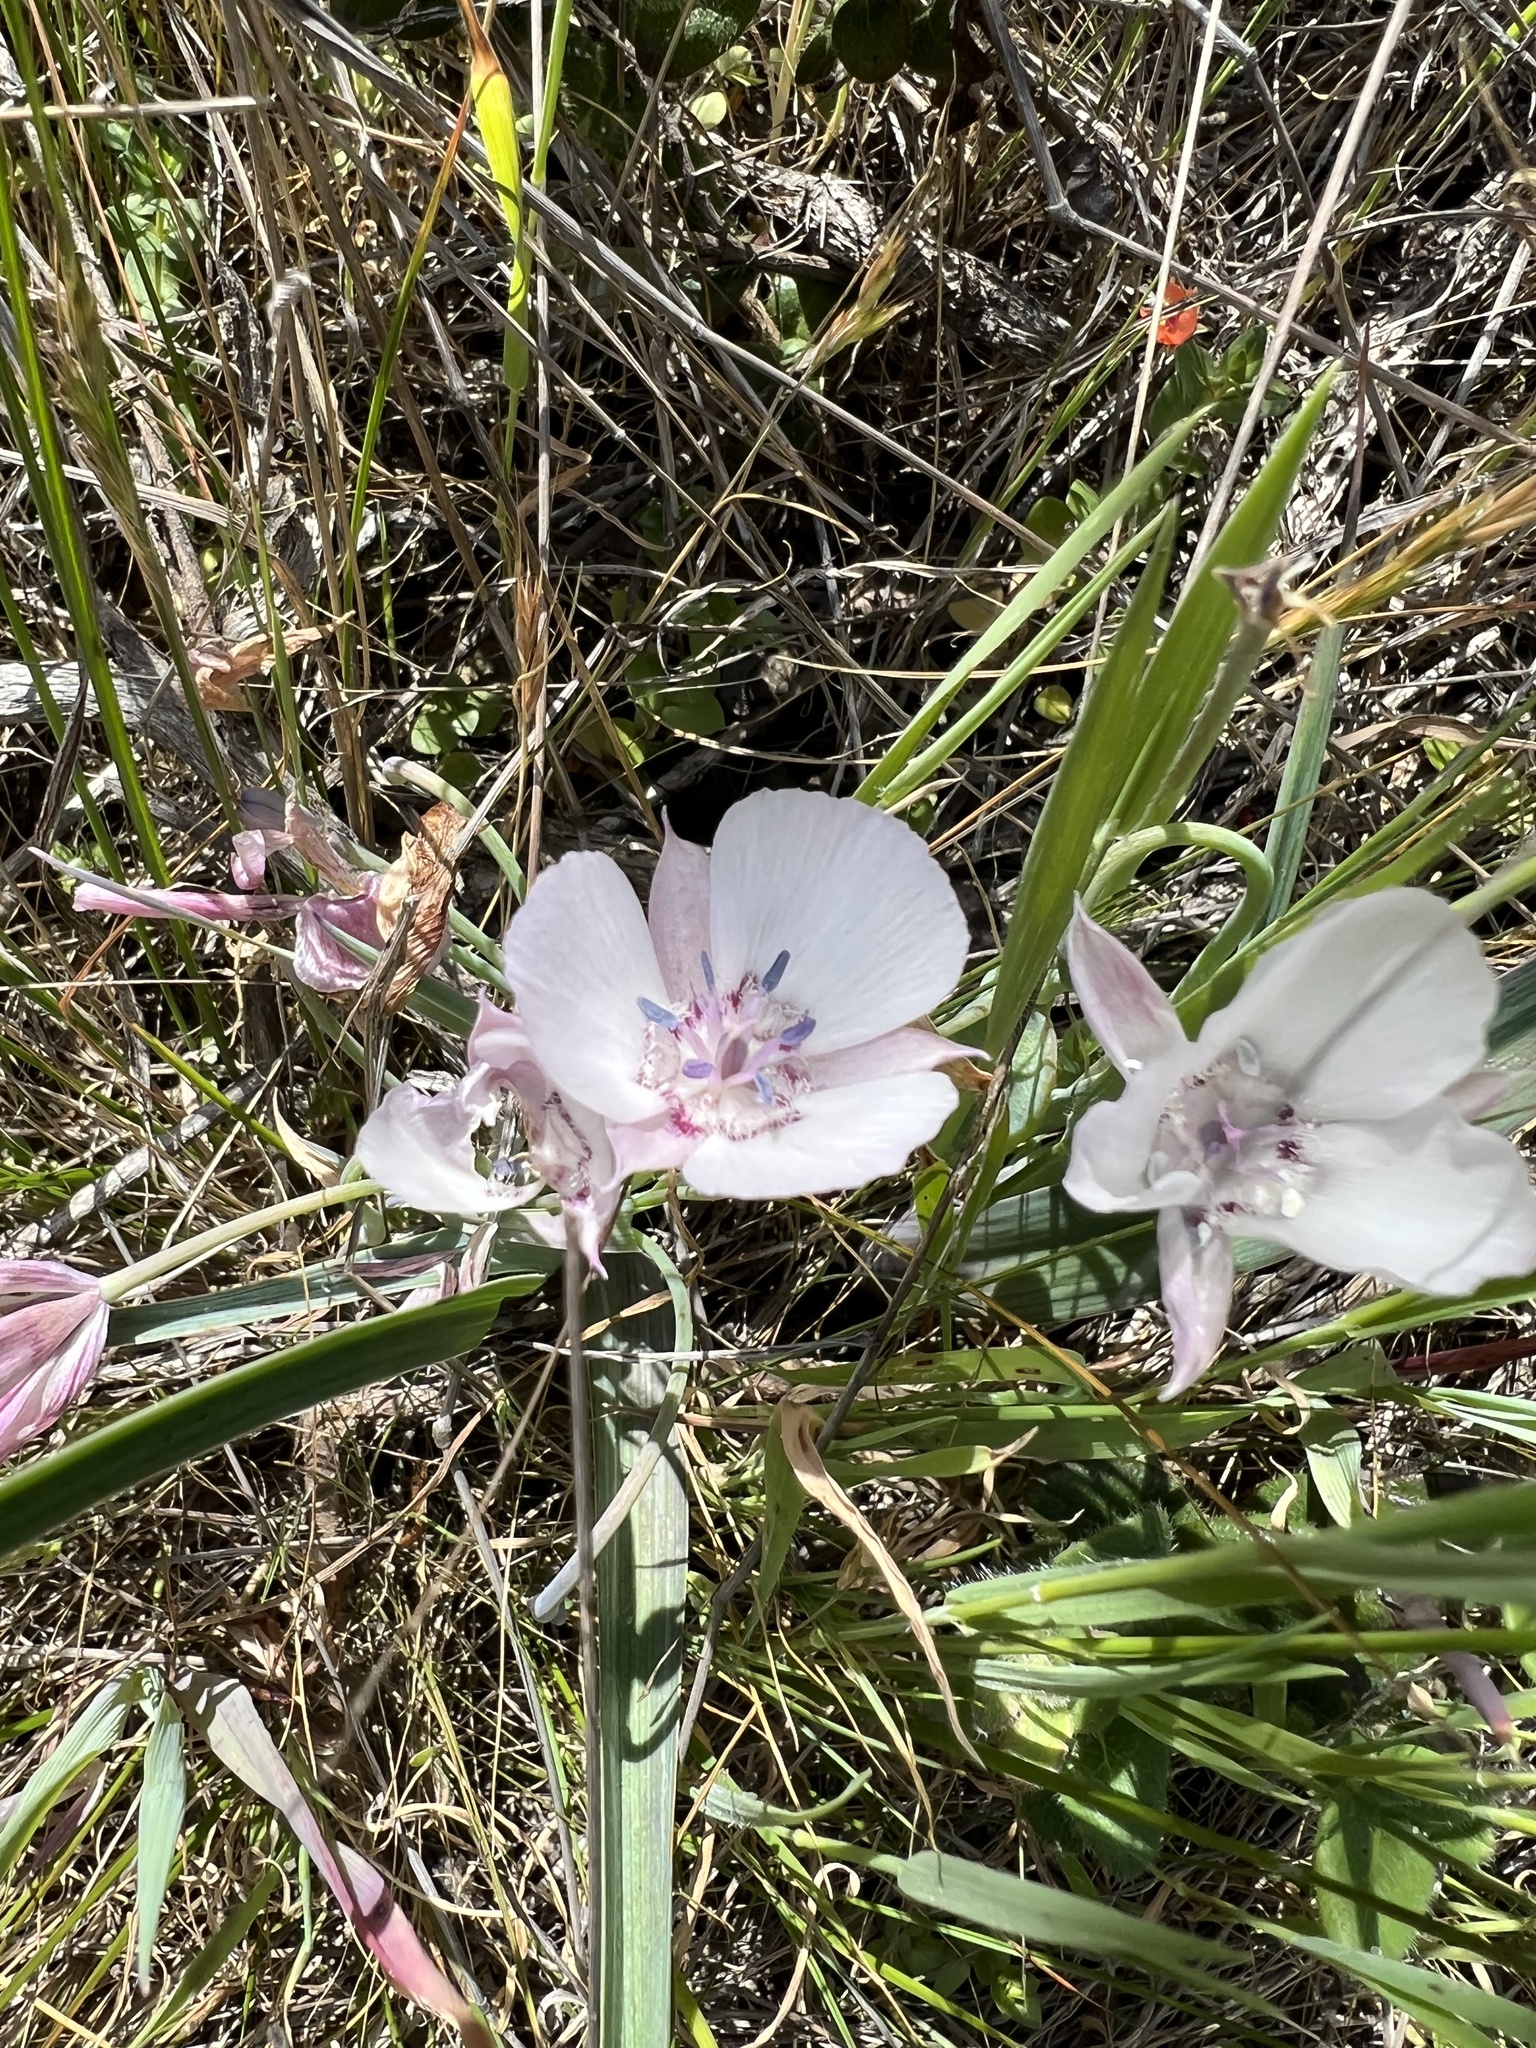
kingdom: Plantae
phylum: Tracheophyta
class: Liliopsida
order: Liliales
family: Liliaceae
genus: Calochortus
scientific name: Calochortus umbellatus
